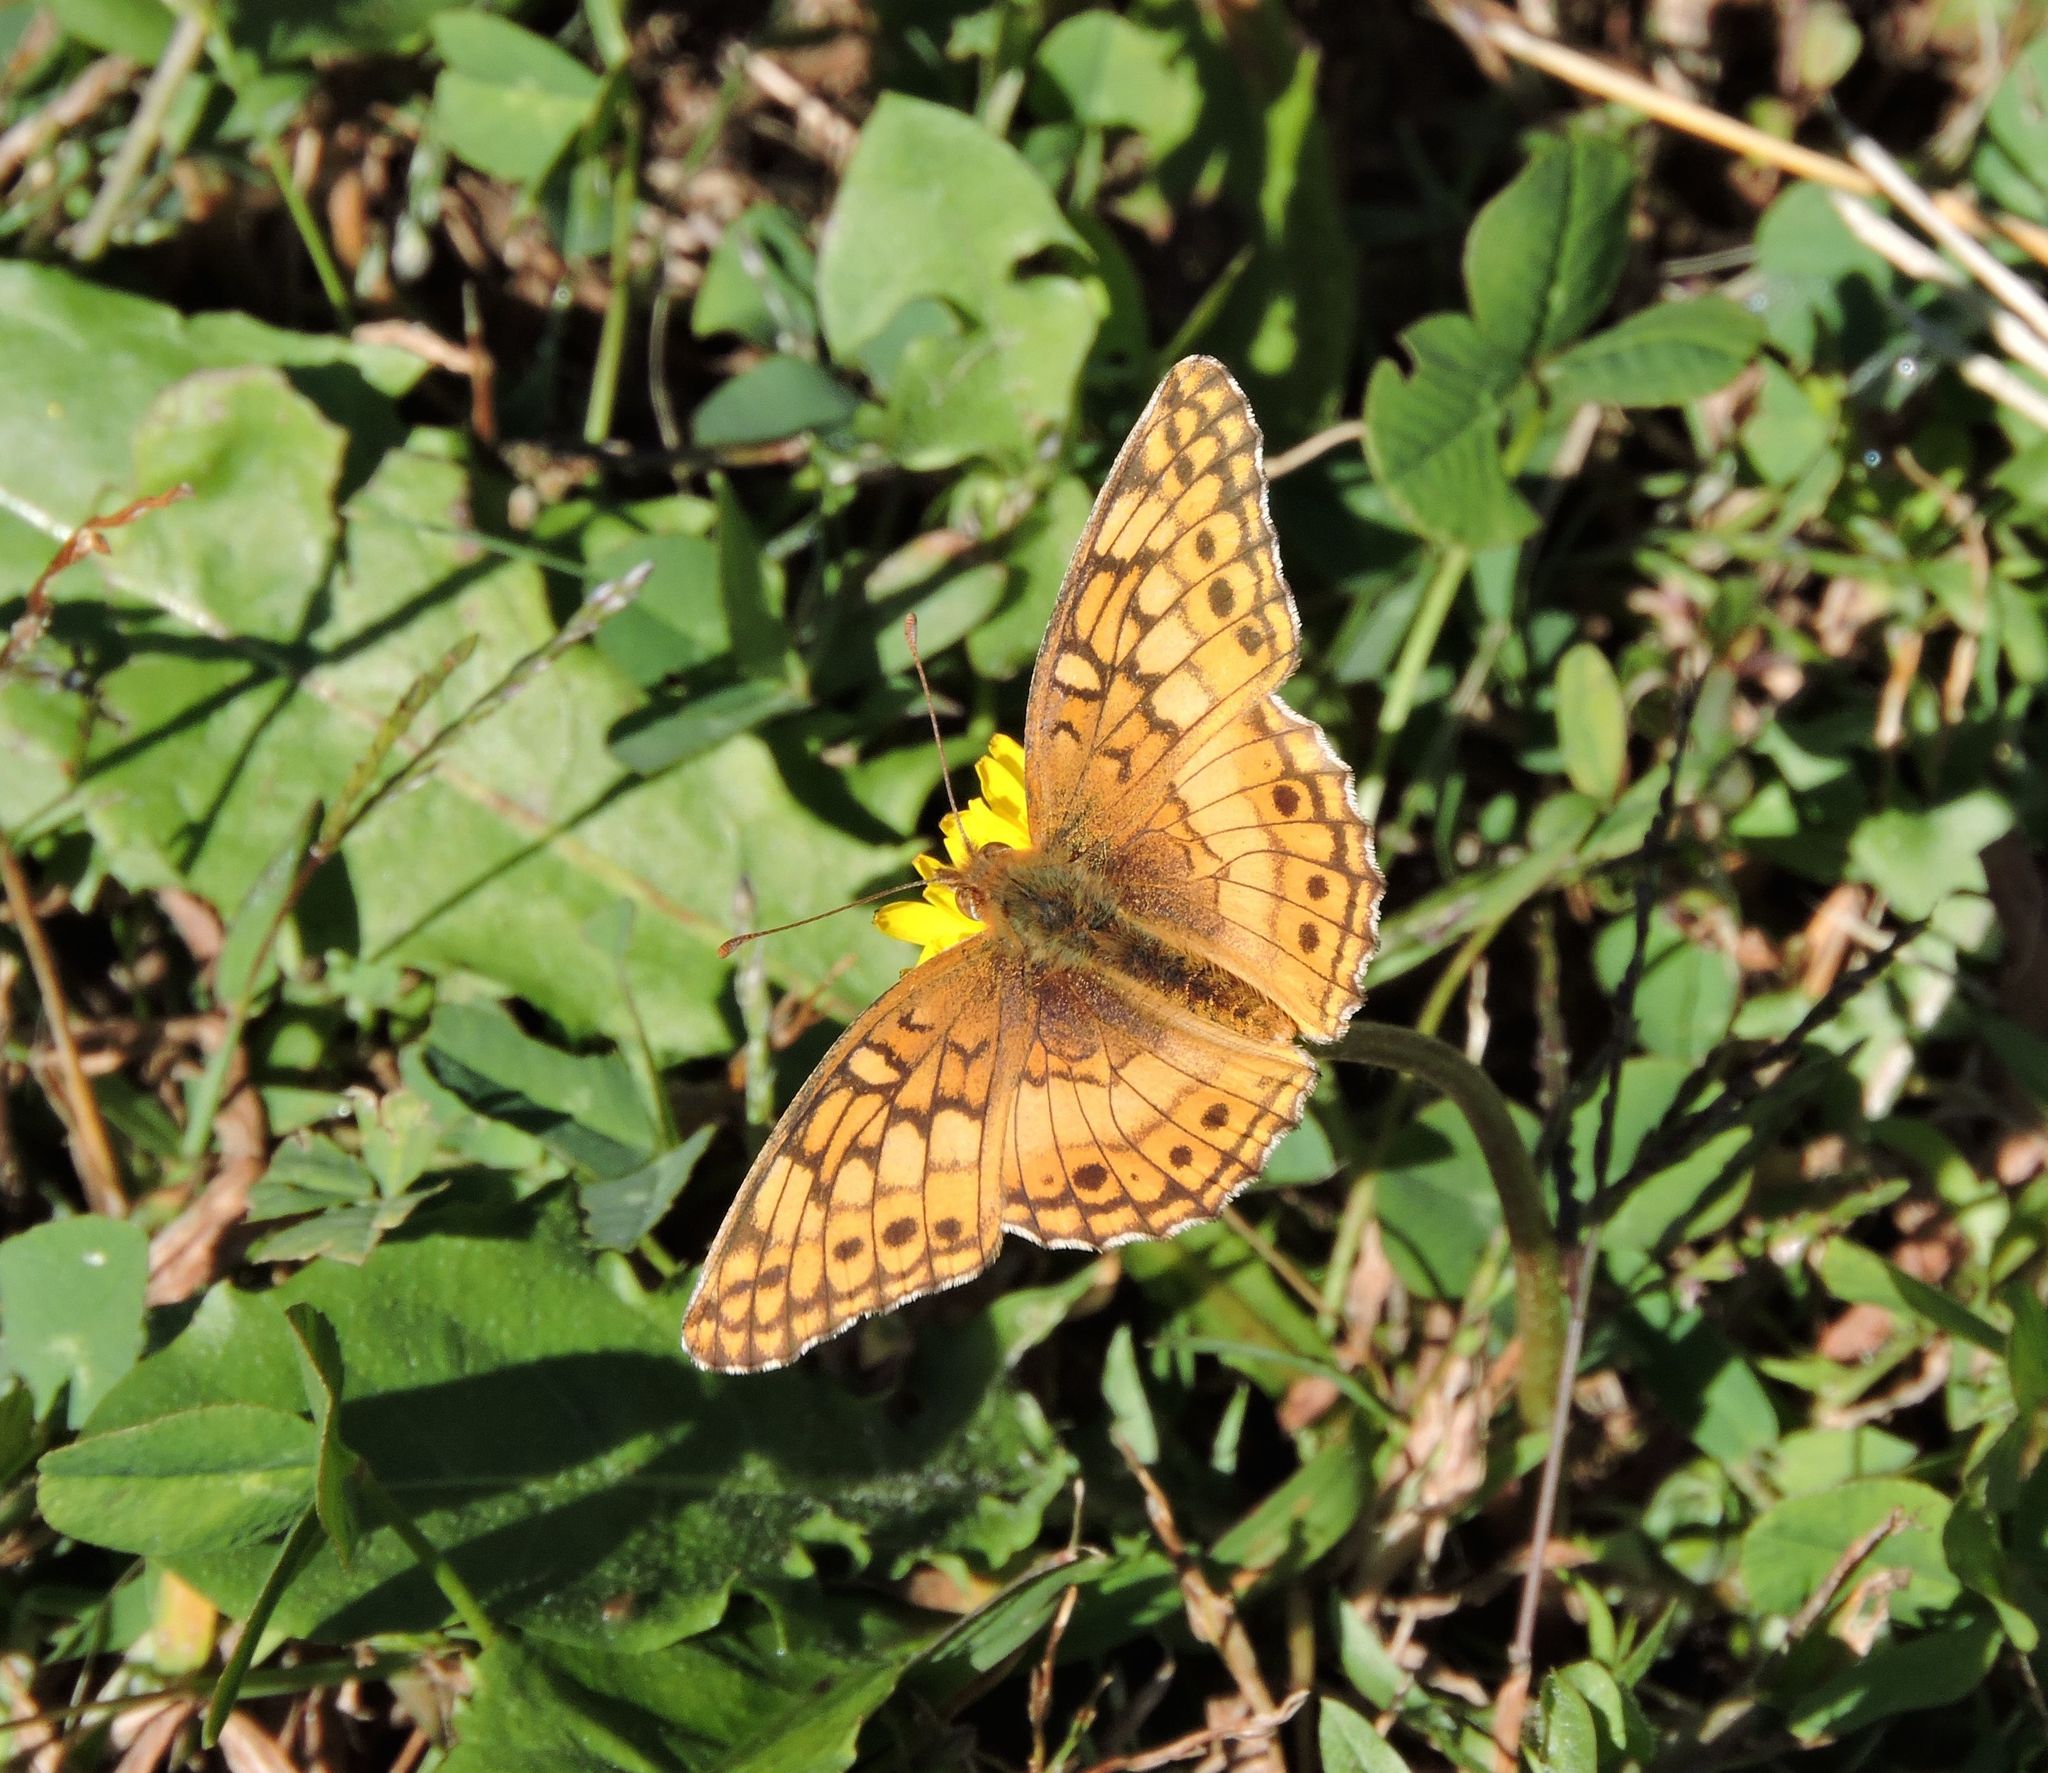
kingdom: Animalia
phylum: Arthropoda
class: Insecta
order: Lepidoptera
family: Nymphalidae
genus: Euptoieta
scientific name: Euptoieta claudia
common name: Variegated fritillary
